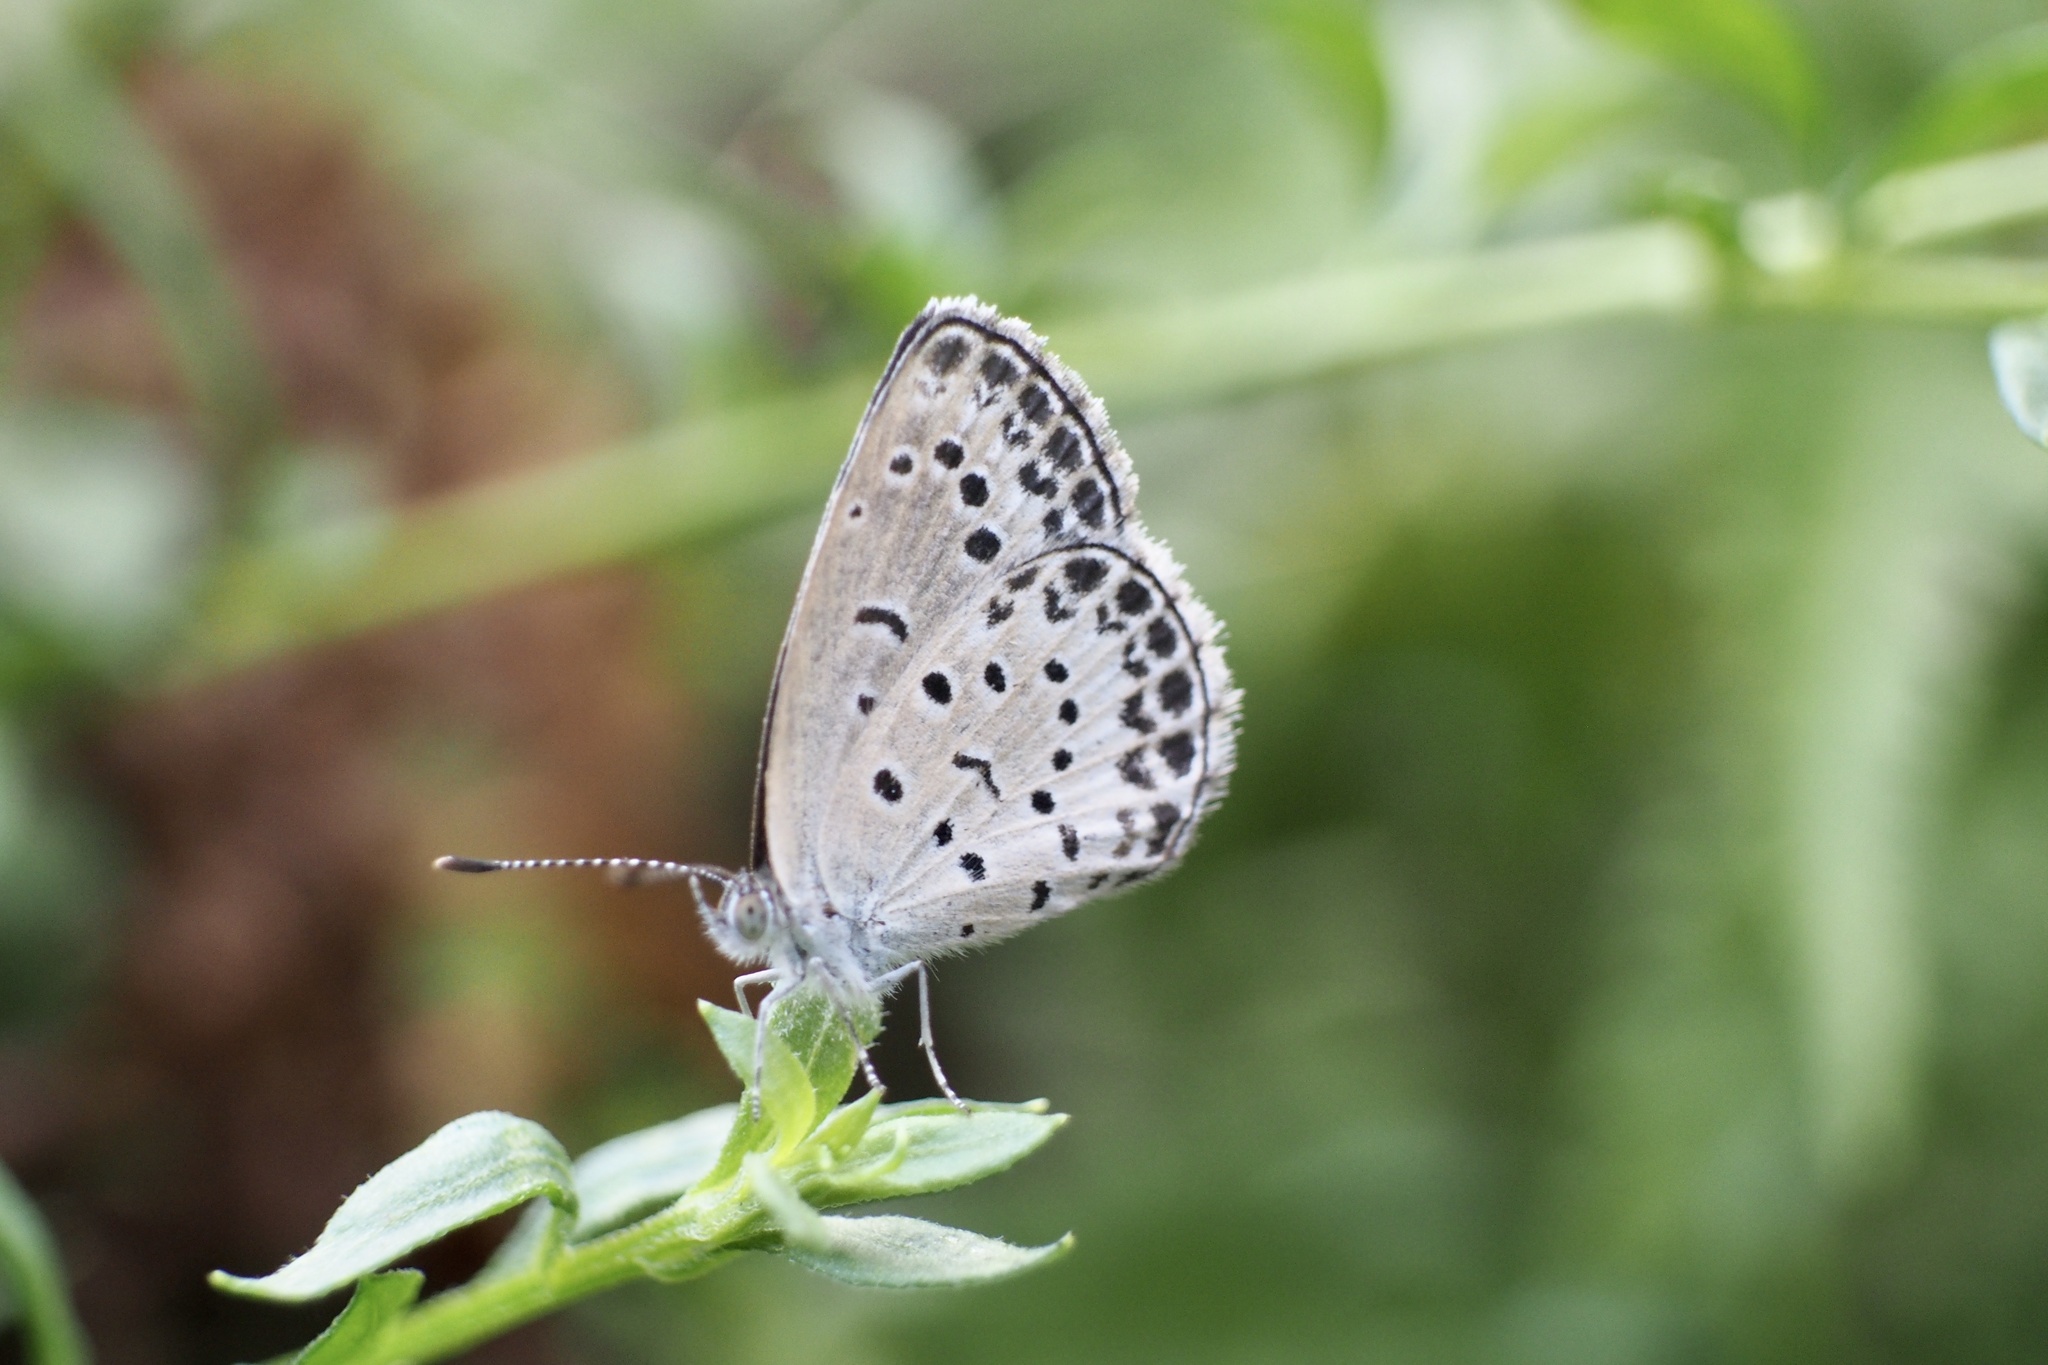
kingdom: Animalia
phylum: Arthropoda
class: Insecta
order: Lepidoptera
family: Lycaenidae
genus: Pseudozizeeria
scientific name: Pseudozizeeria maha
